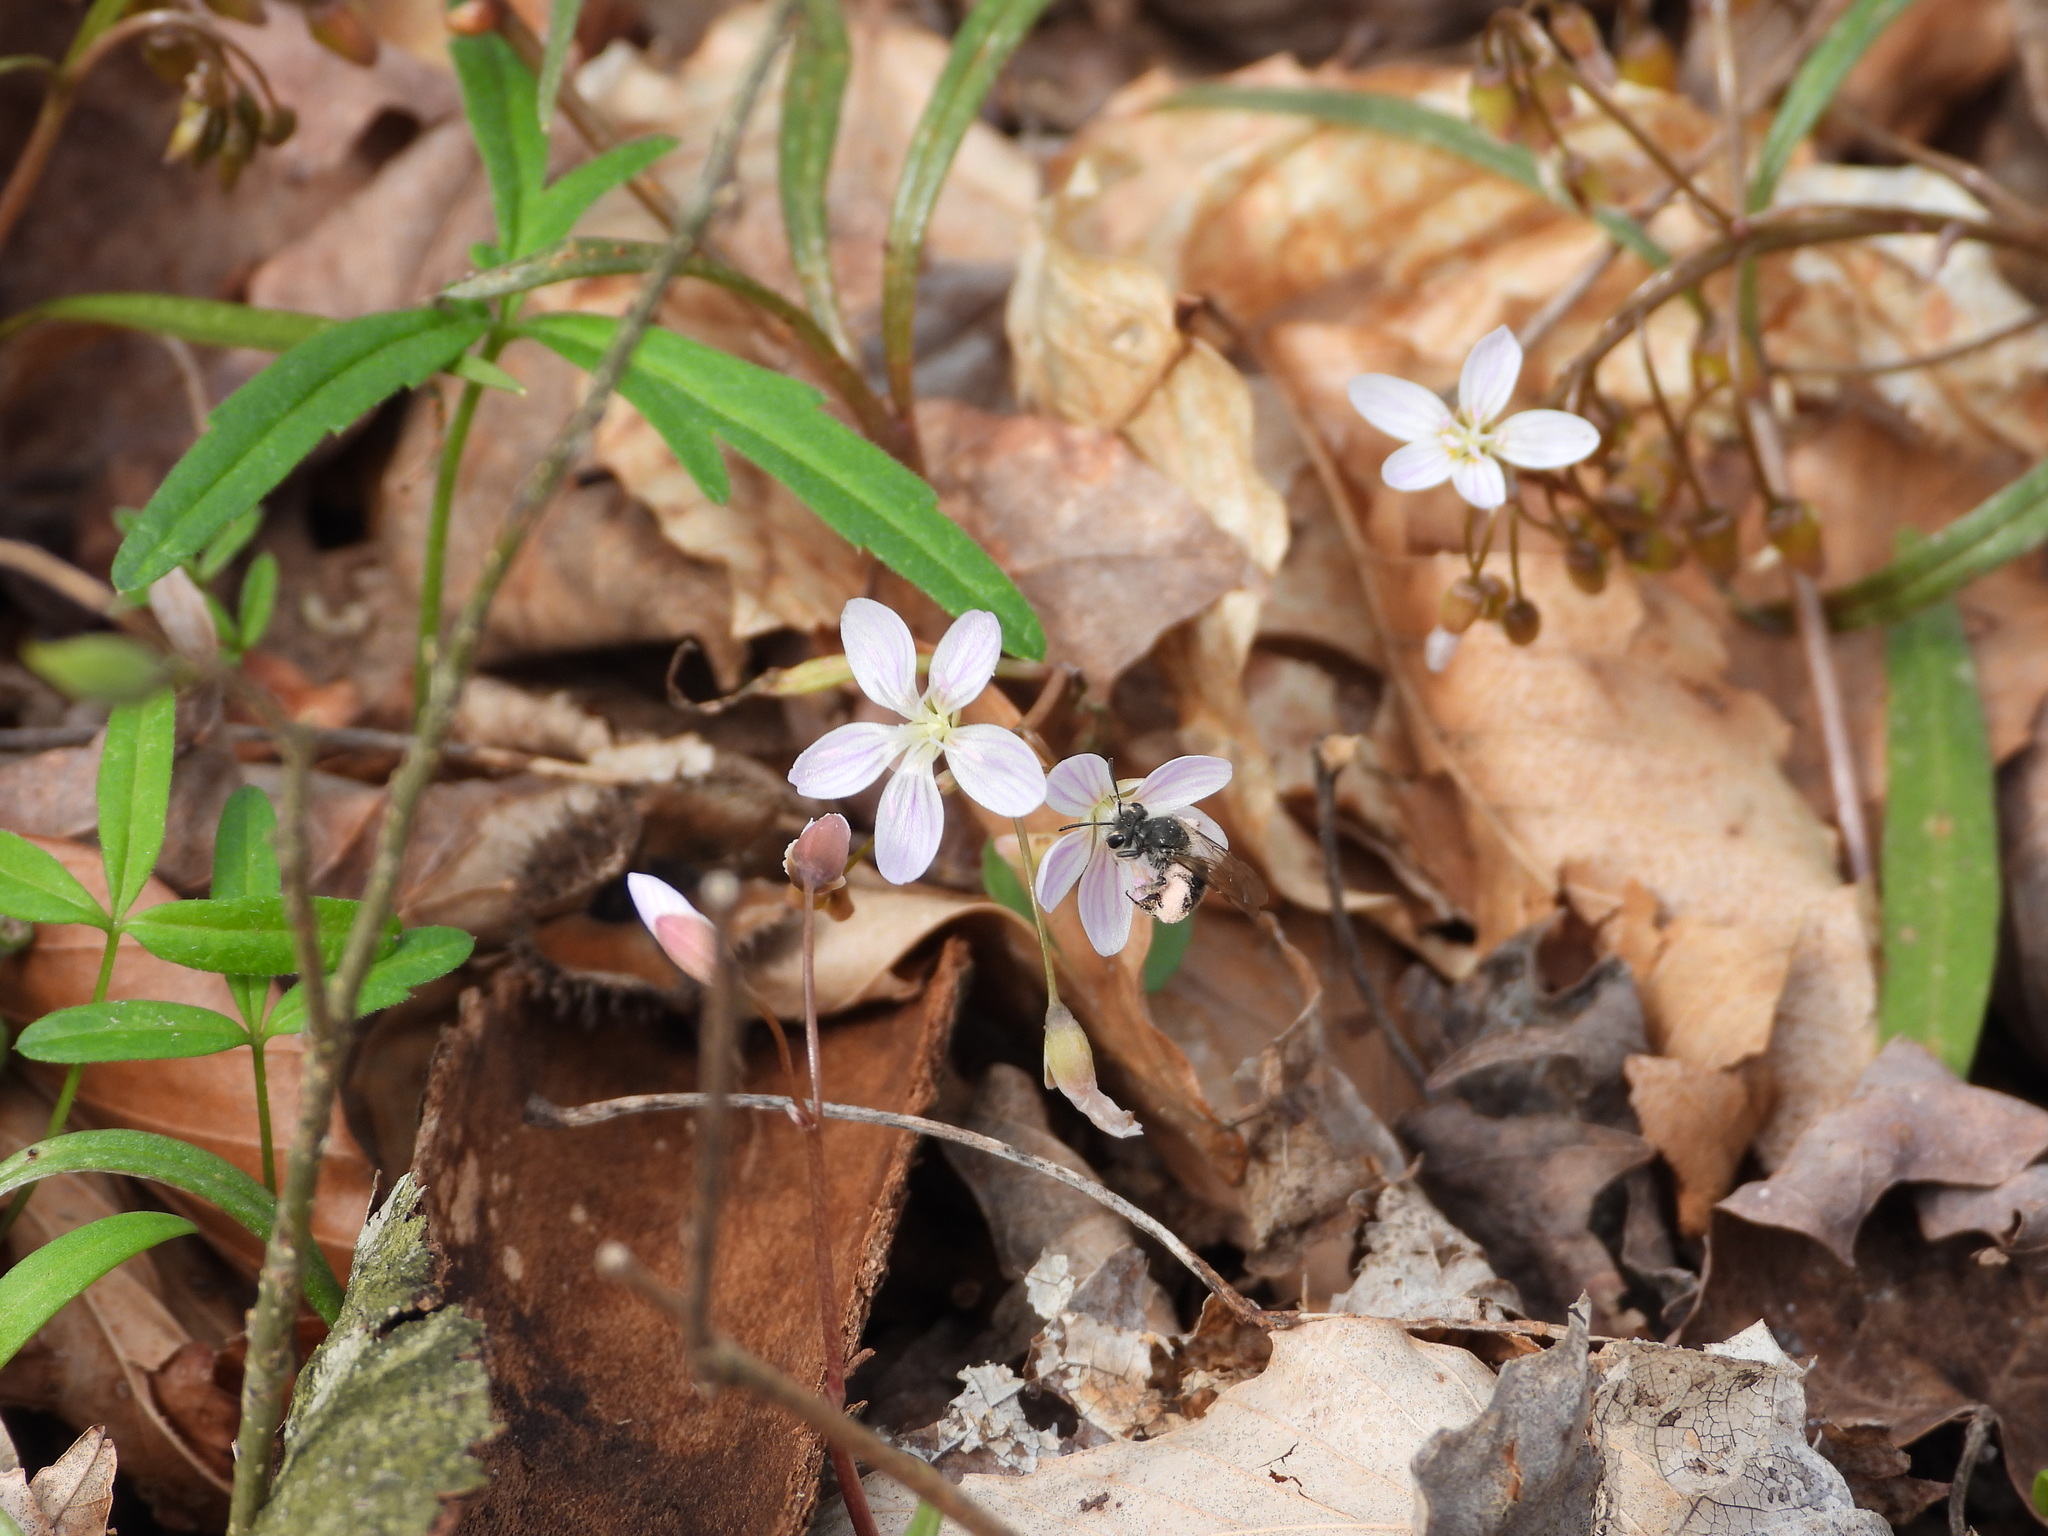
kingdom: Animalia
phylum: Arthropoda
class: Insecta
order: Hymenoptera
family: Andrenidae
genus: Andrena
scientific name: Andrena erigeniae
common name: Spring beauty miner
